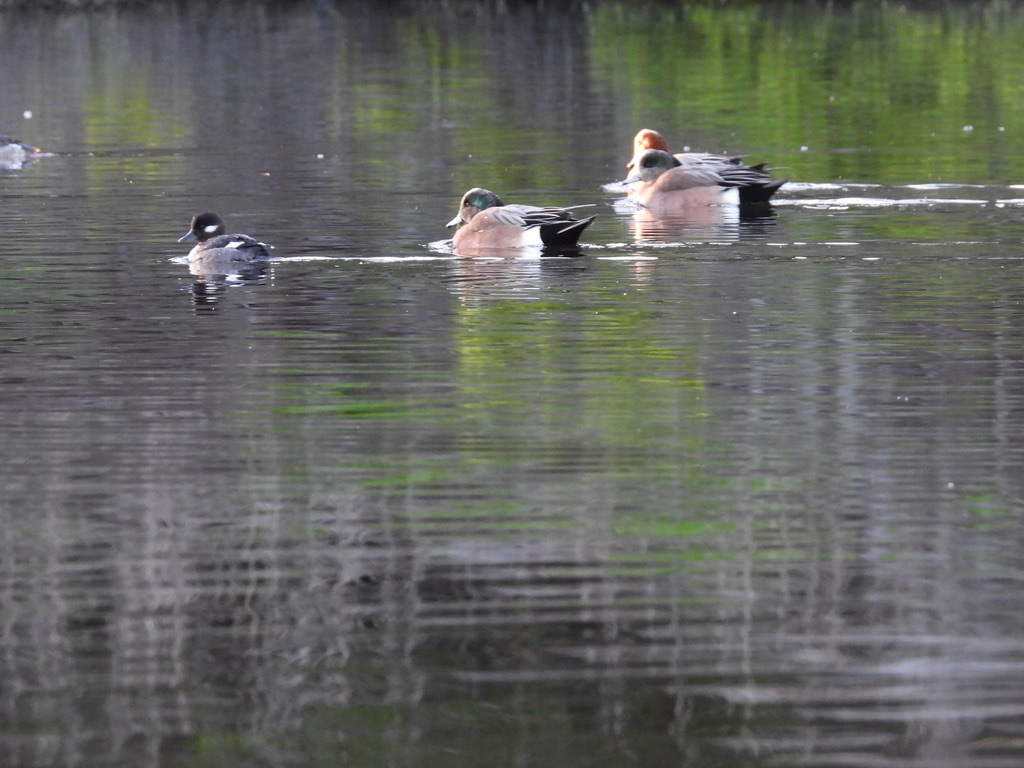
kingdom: Animalia
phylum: Chordata
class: Aves
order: Anseriformes
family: Anatidae
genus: Mareca
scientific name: Mareca penelope
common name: Eurasian wigeon
